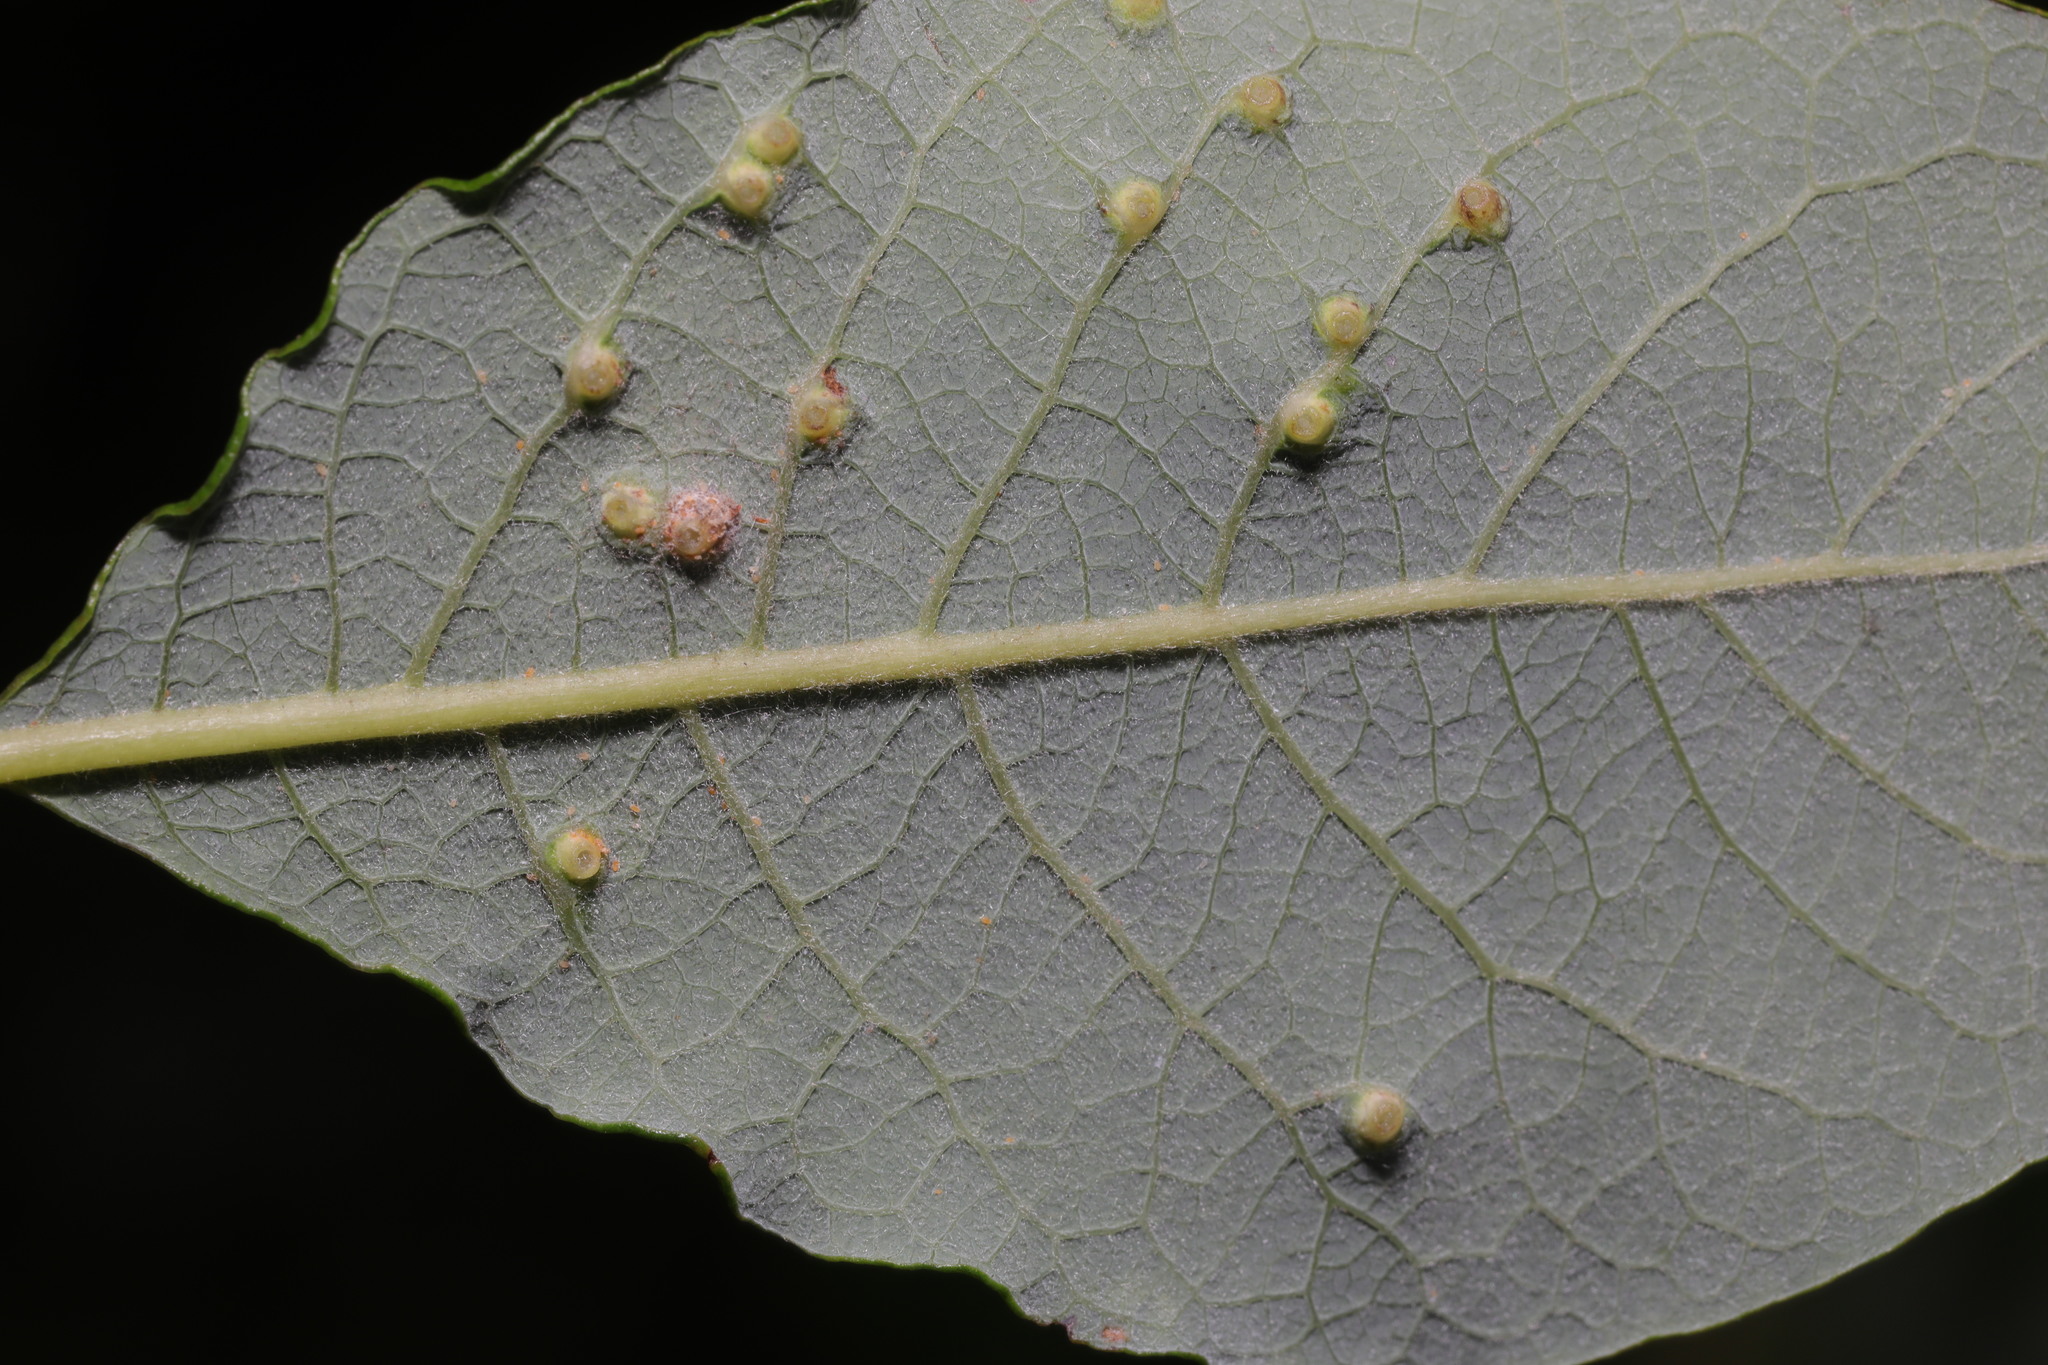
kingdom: Animalia
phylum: Arthropoda
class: Insecta
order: Diptera
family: Cecidomyiidae
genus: Iteomyia
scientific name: Iteomyia capreae
